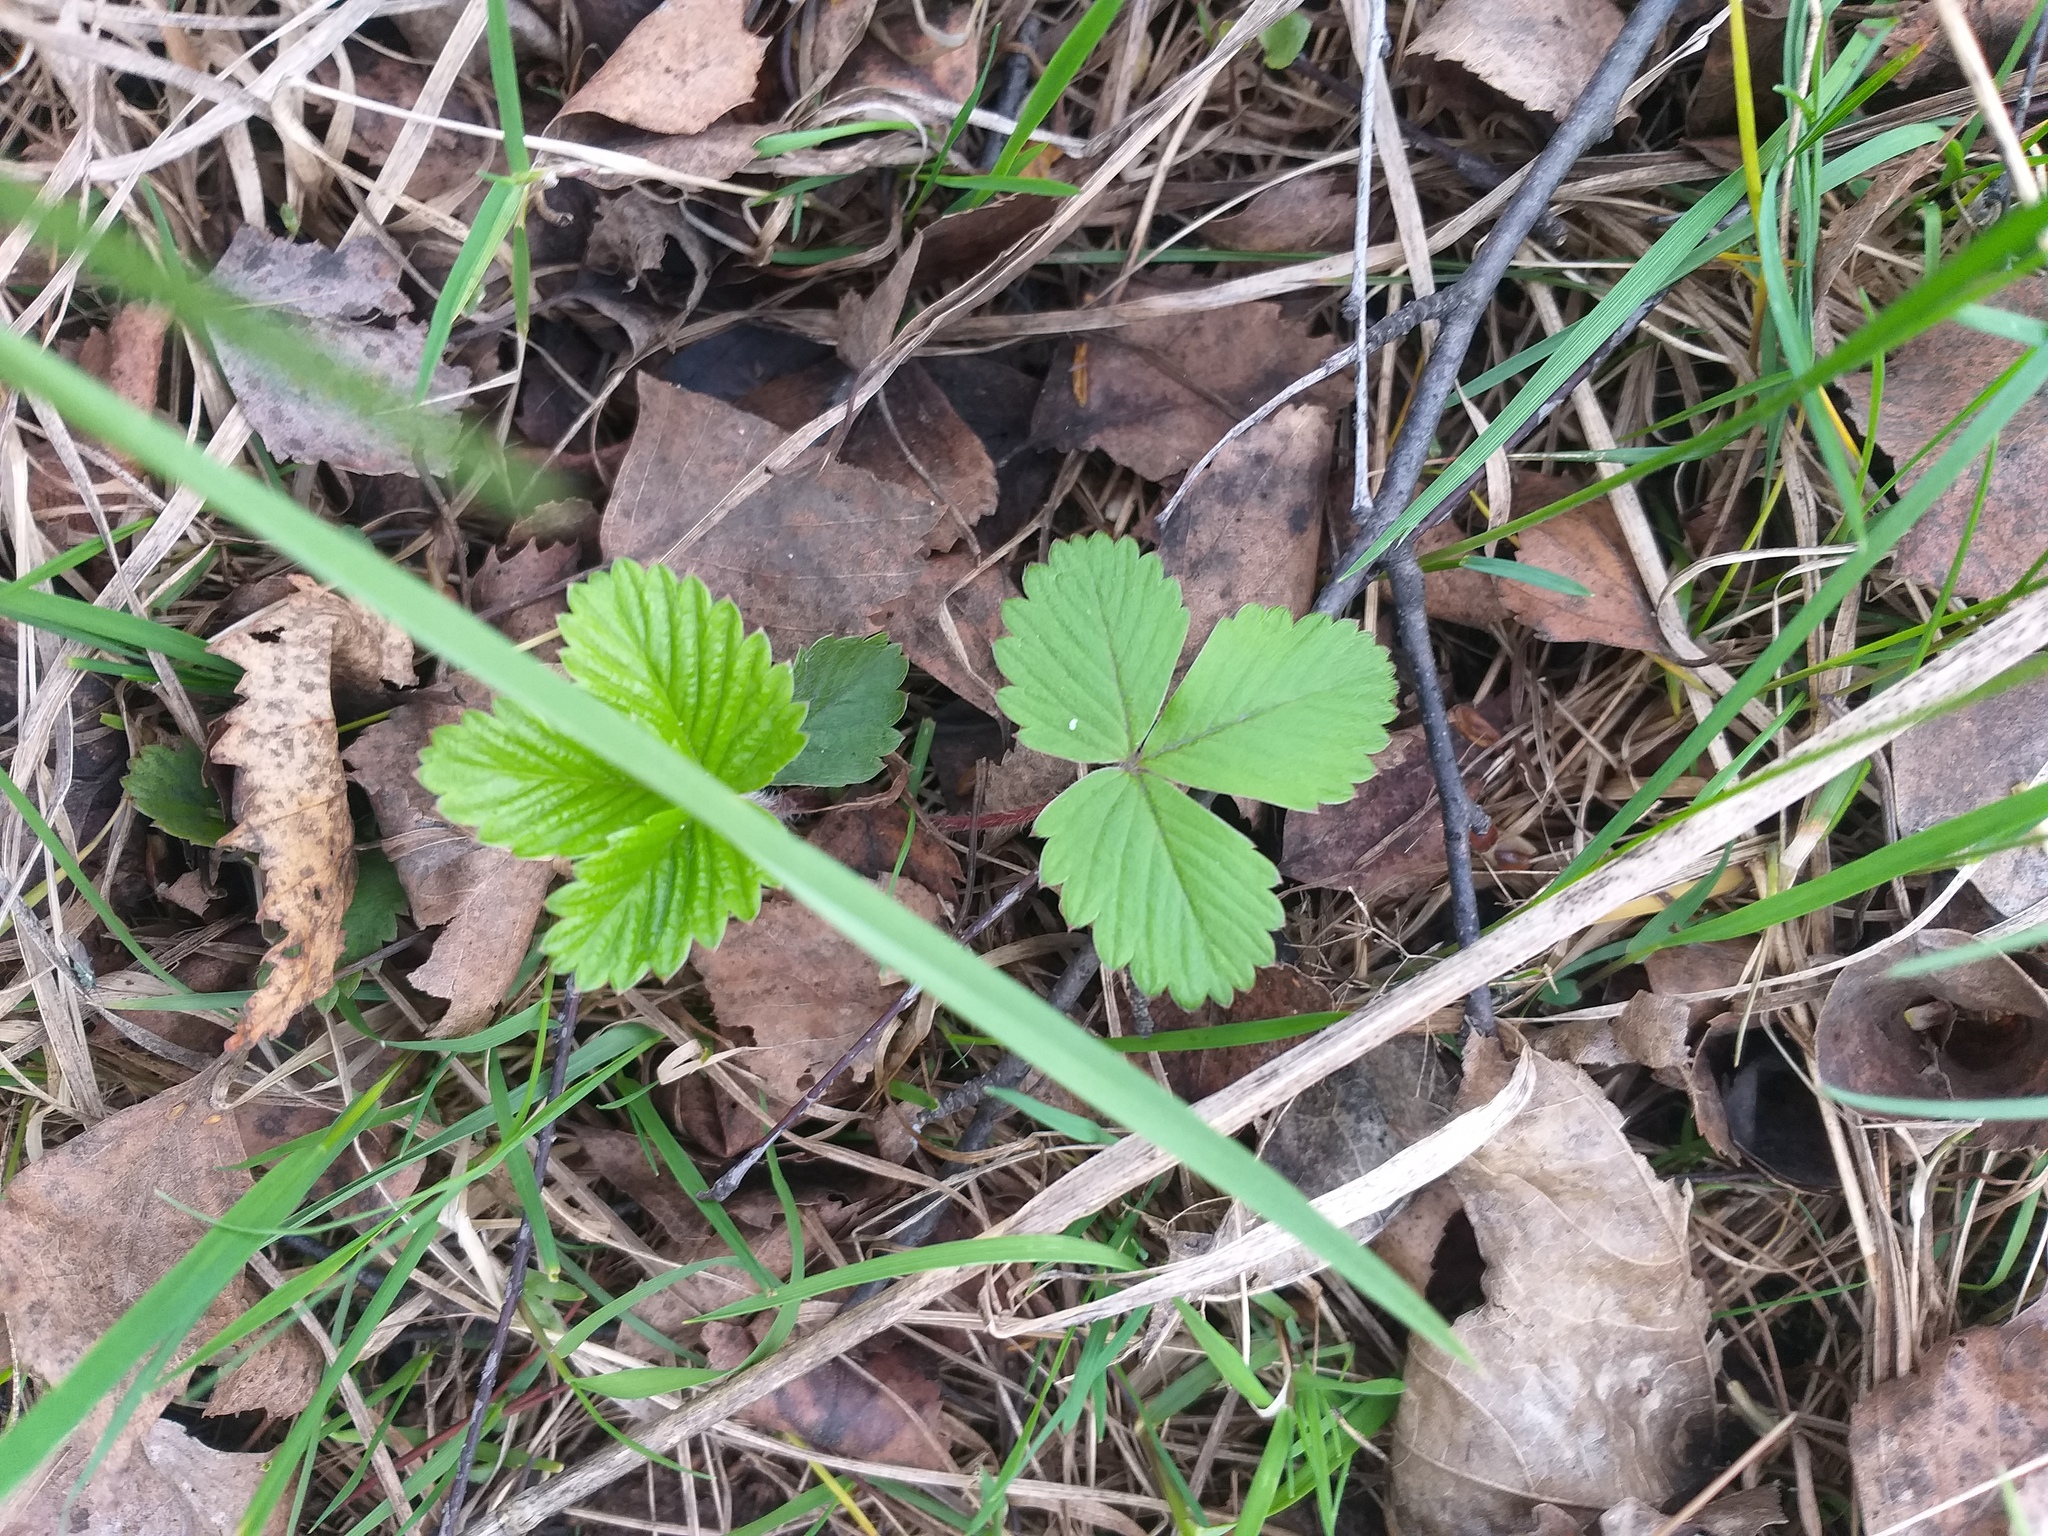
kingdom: Plantae
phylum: Tracheophyta
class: Magnoliopsida
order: Rosales
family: Rosaceae
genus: Fragaria
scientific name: Fragaria vesca
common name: Wild strawberry
